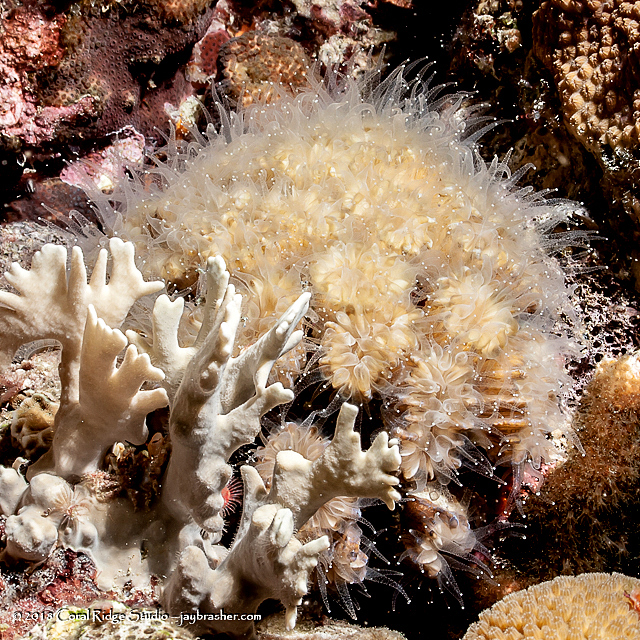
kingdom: Animalia
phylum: Cnidaria
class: Anthozoa
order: Scleractinia
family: Meandrinidae
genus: Eusmilia
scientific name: Eusmilia fastigiata
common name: Smooth flower coral
